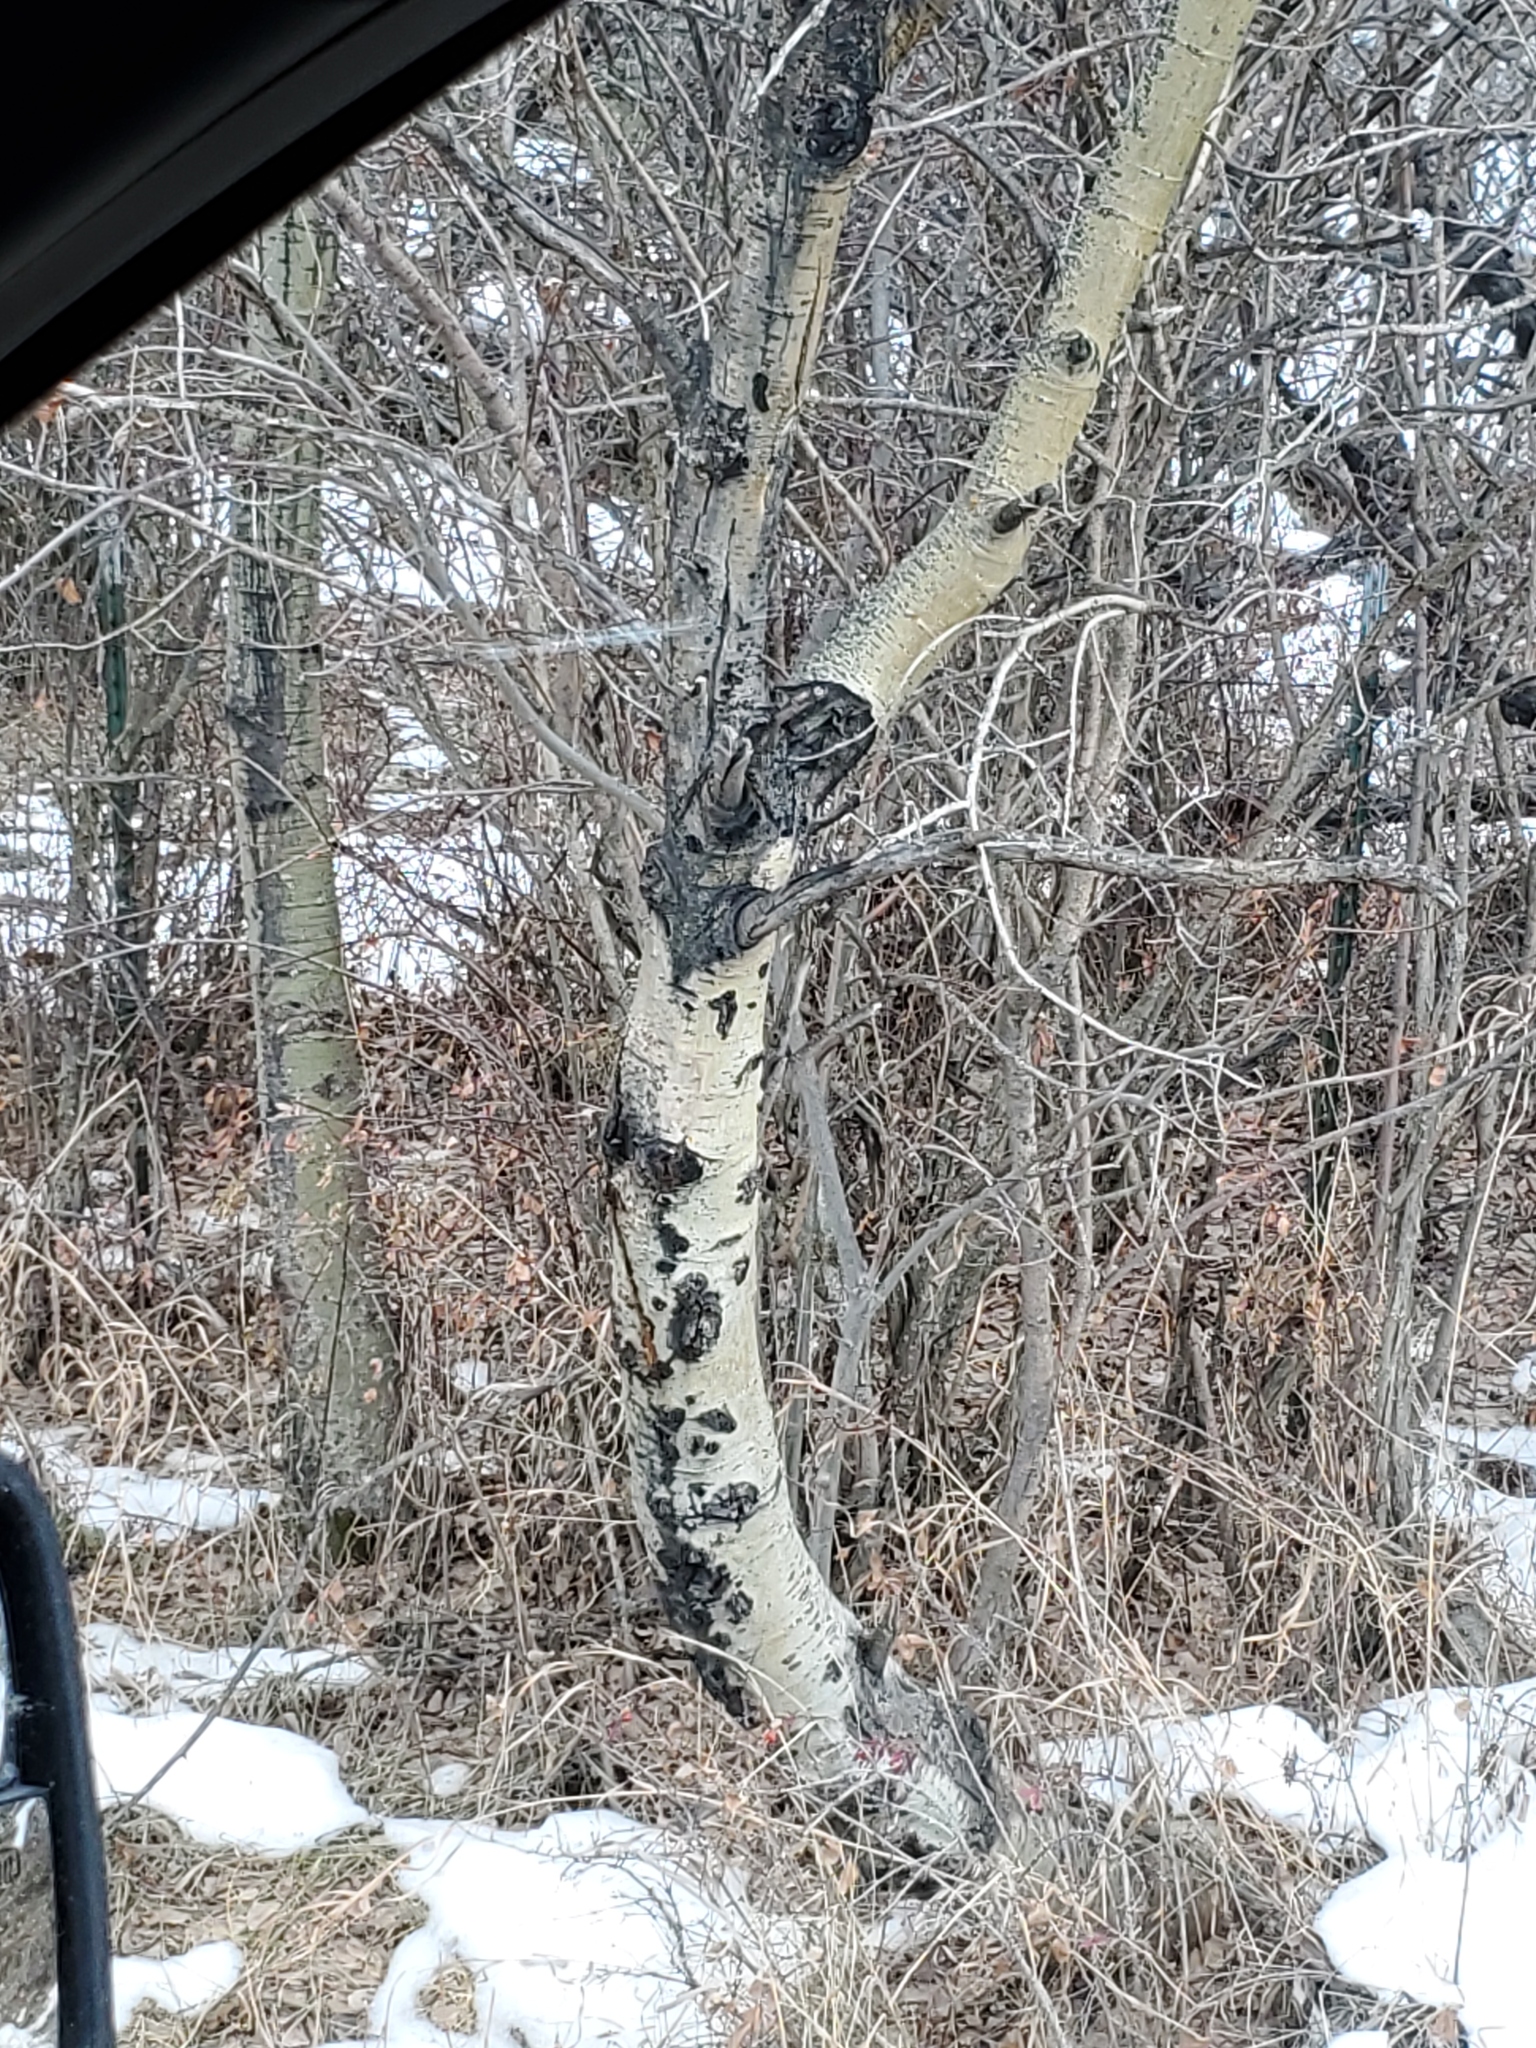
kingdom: Plantae
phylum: Tracheophyta
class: Magnoliopsida
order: Malpighiales
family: Salicaceae
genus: Populus
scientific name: Populus tremuloides
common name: Quaking aspen
